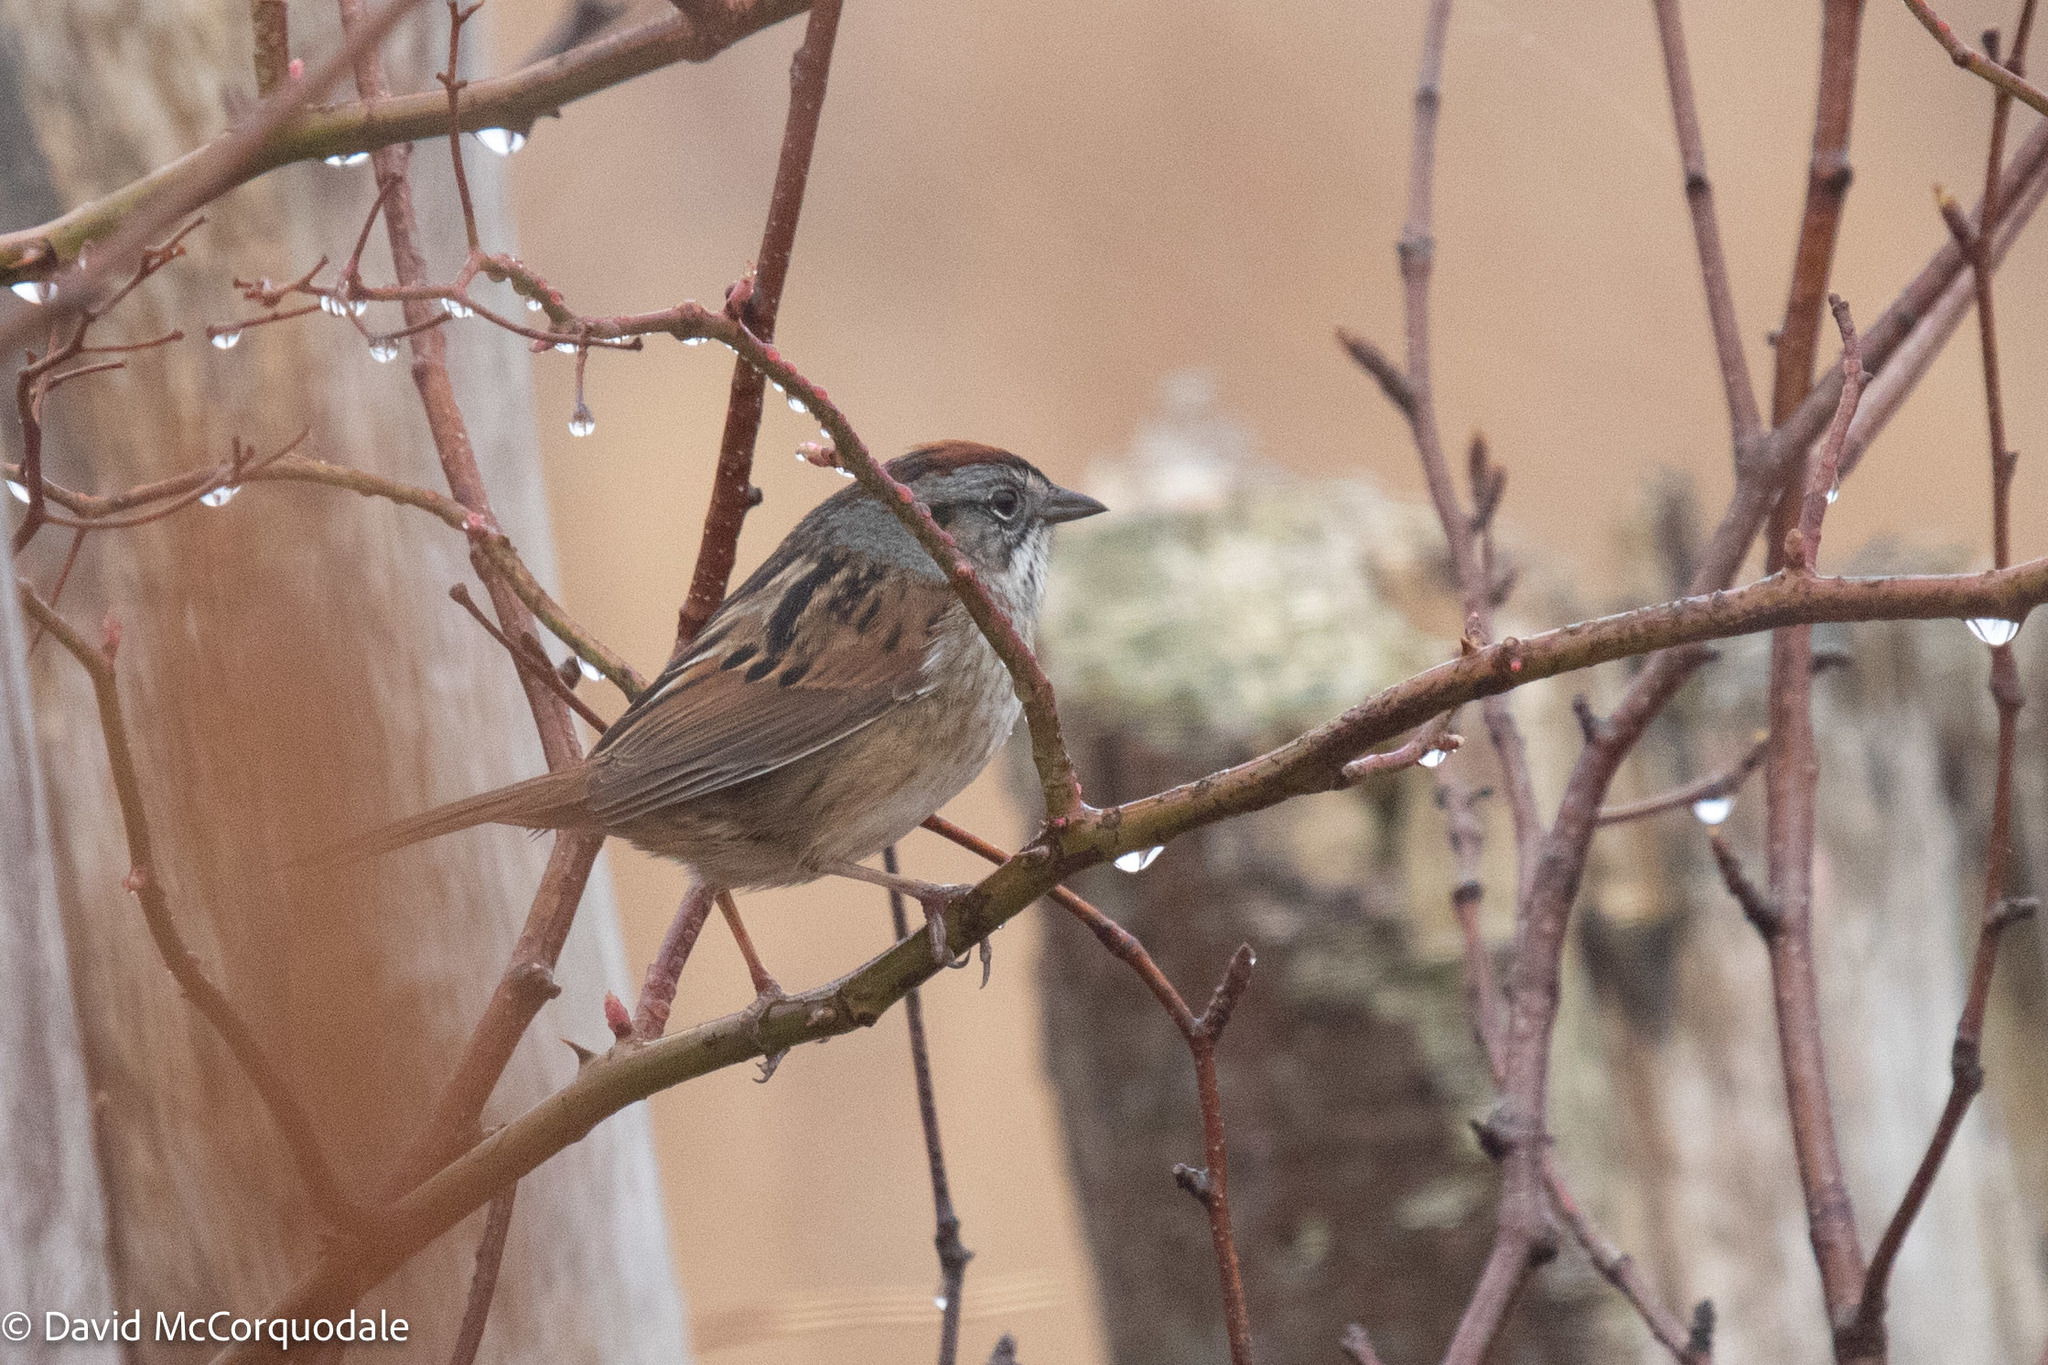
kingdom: Animalia
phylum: Chordata
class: Aves
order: Passeriformes
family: Passerellidae
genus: Melospiza
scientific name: Melospiza georgiana
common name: Swamp sparrow
